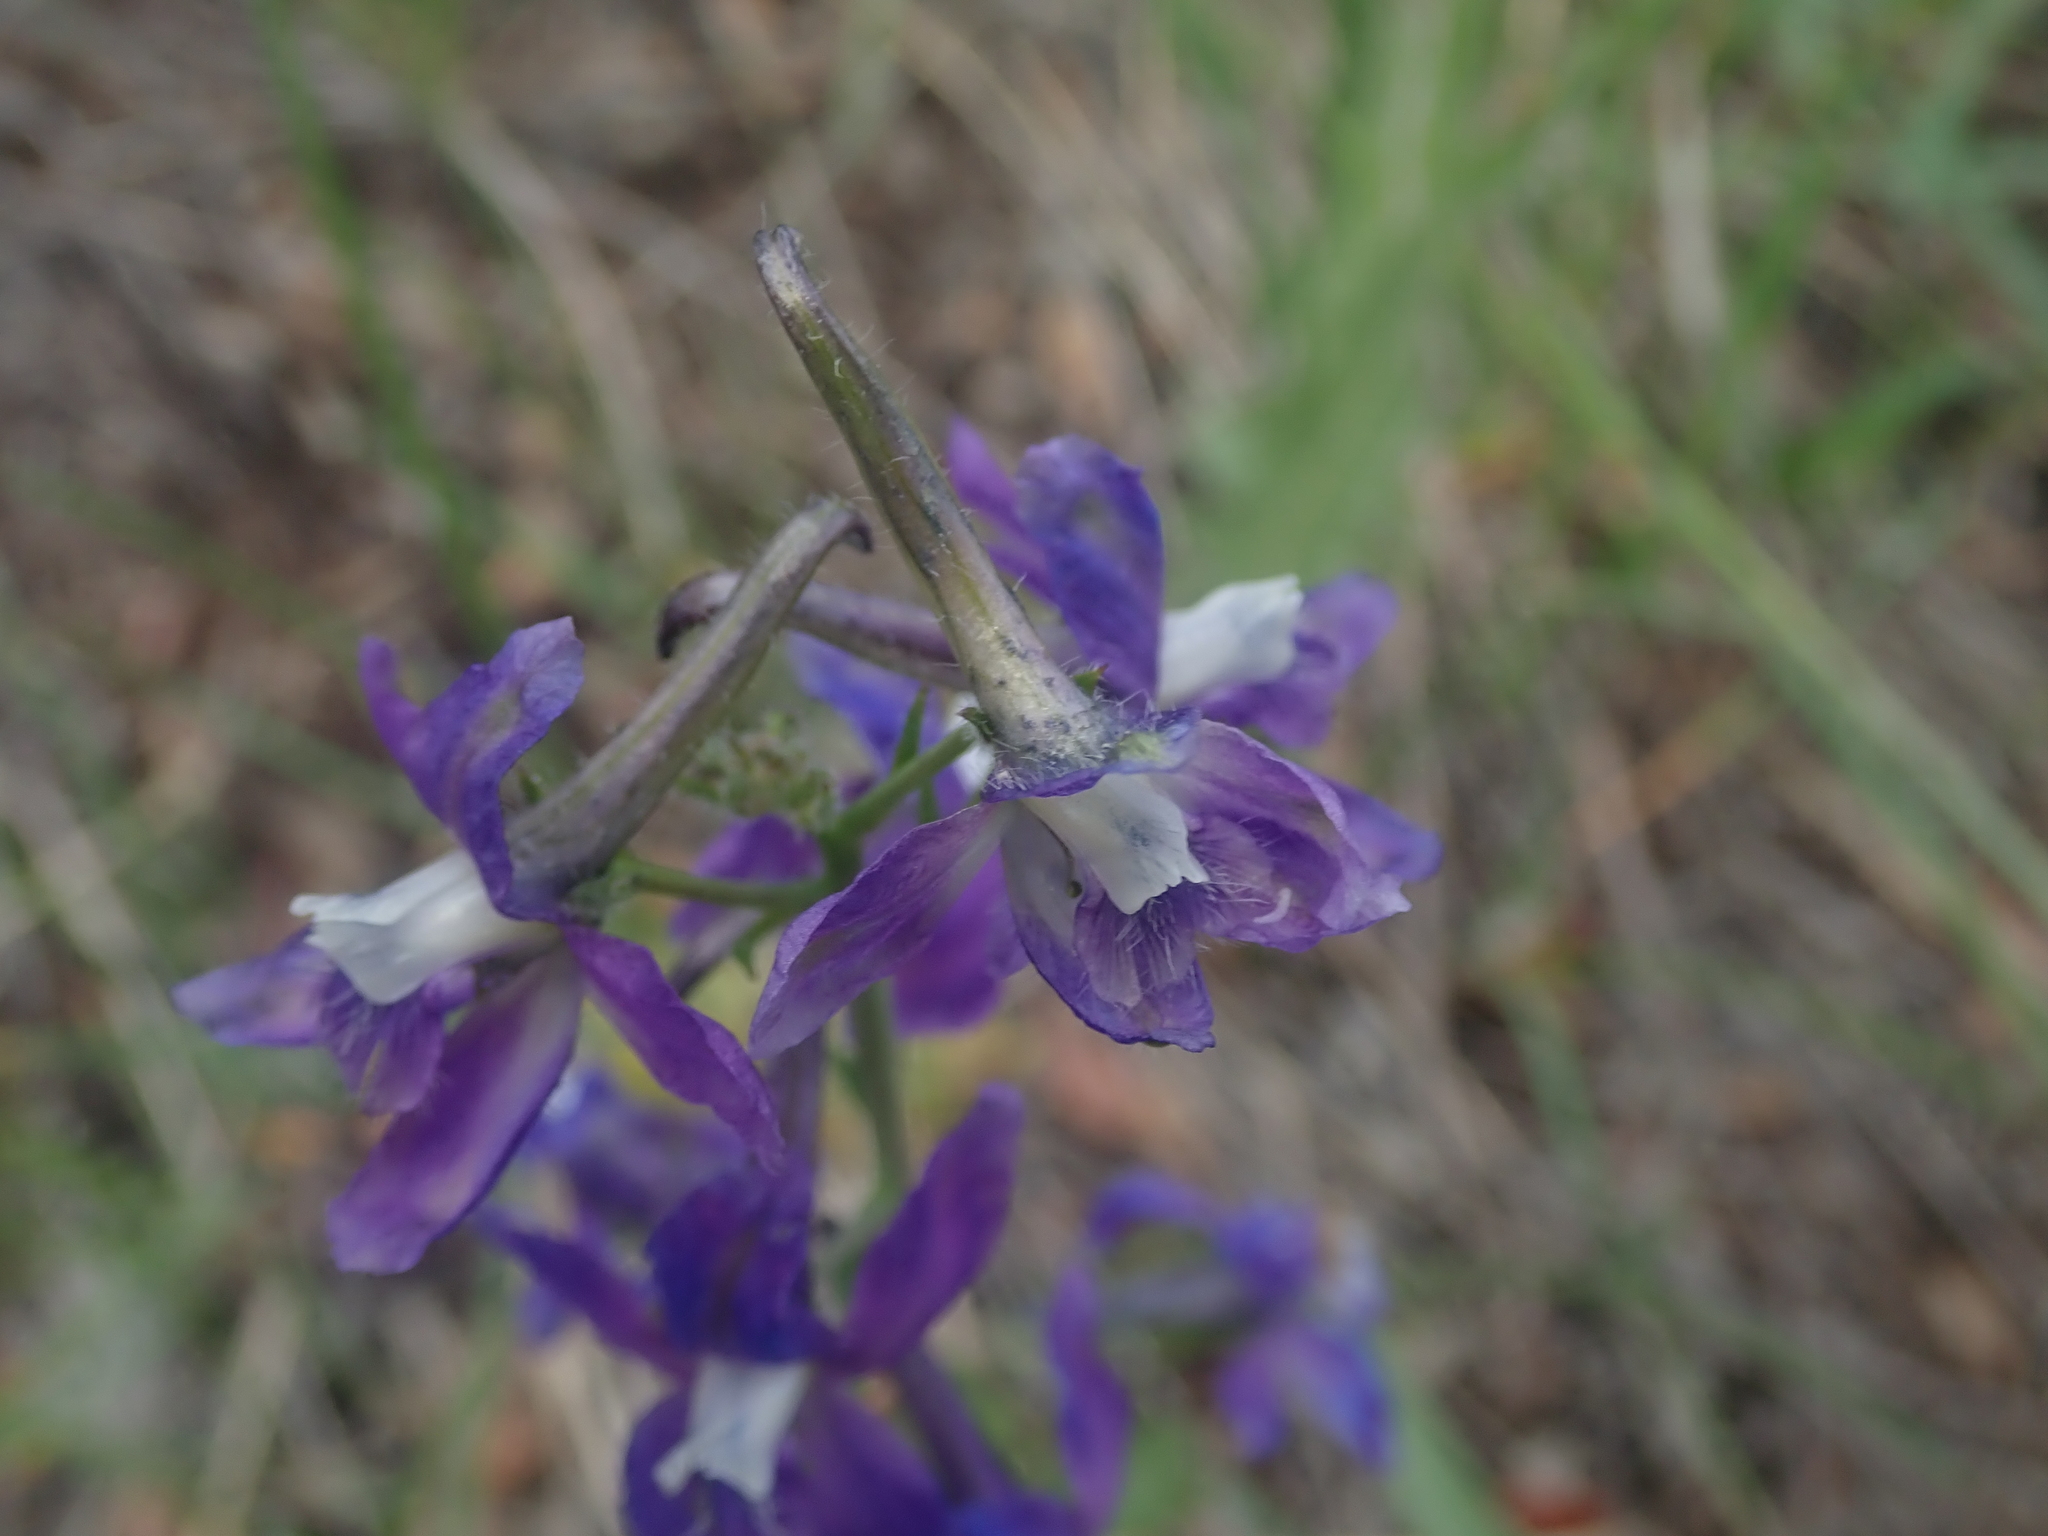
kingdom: Plantae
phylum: Tracheophyta
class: Magnoliopsida
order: Ranunculales
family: Ranunculaceae
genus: Delphinium
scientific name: Delphinium nuttallianum
